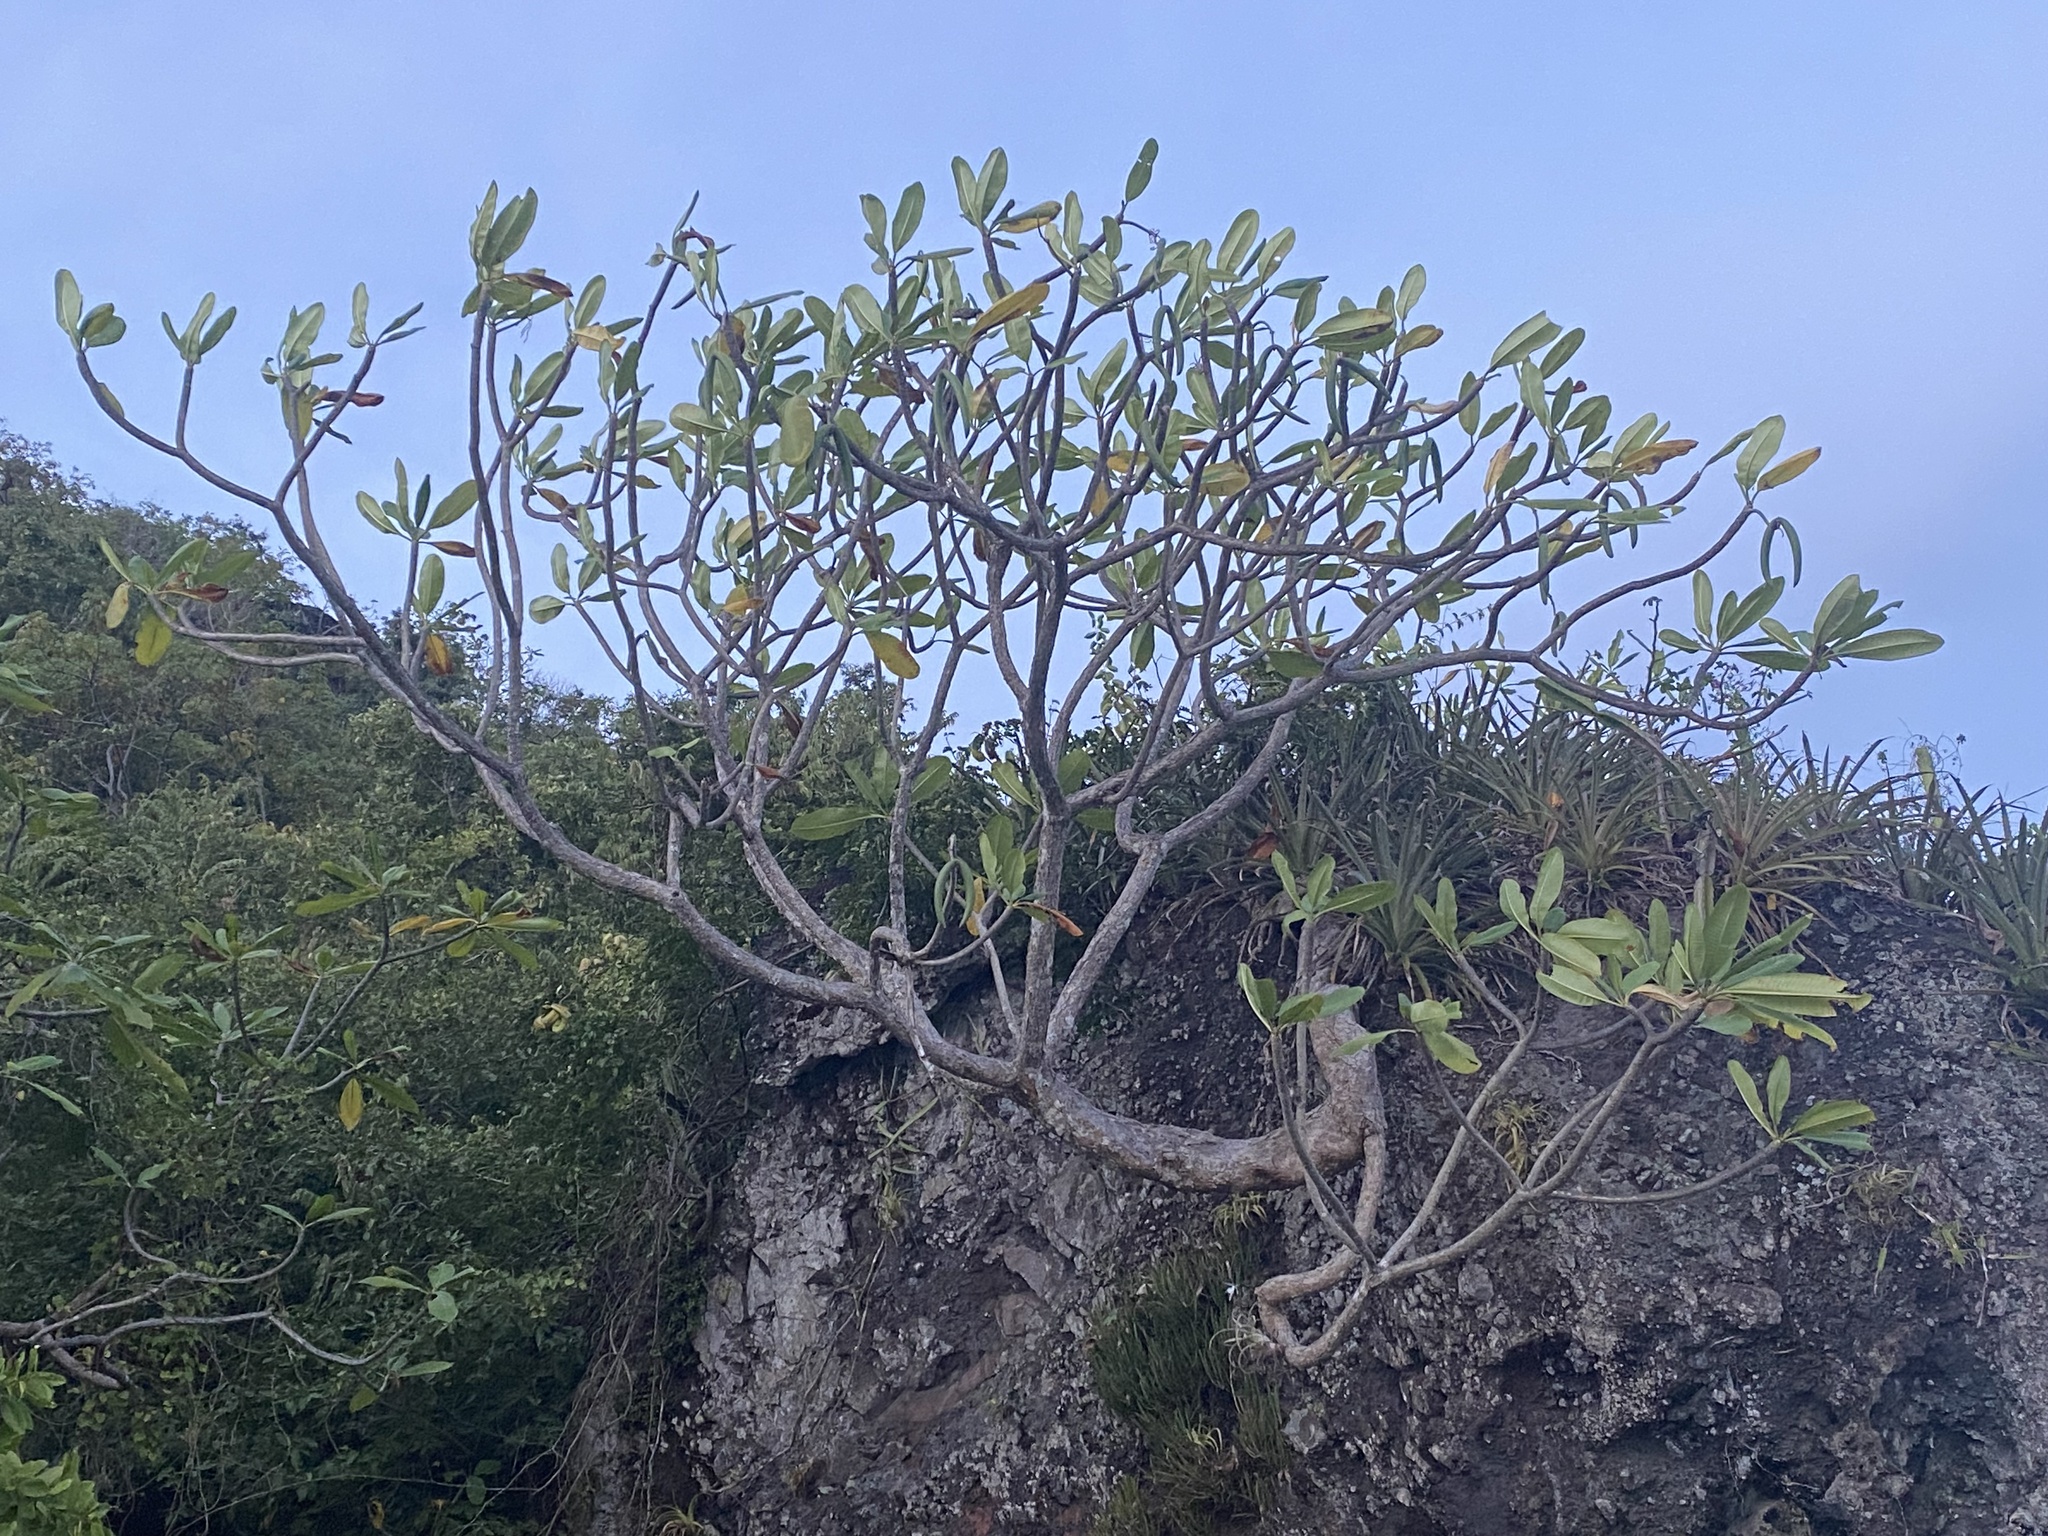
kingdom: Plantae
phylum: Tracheophyta
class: Magnoliopsida
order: Gentianales
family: Apocynaceae
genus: Plumeria
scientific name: Plumeria obtusa
